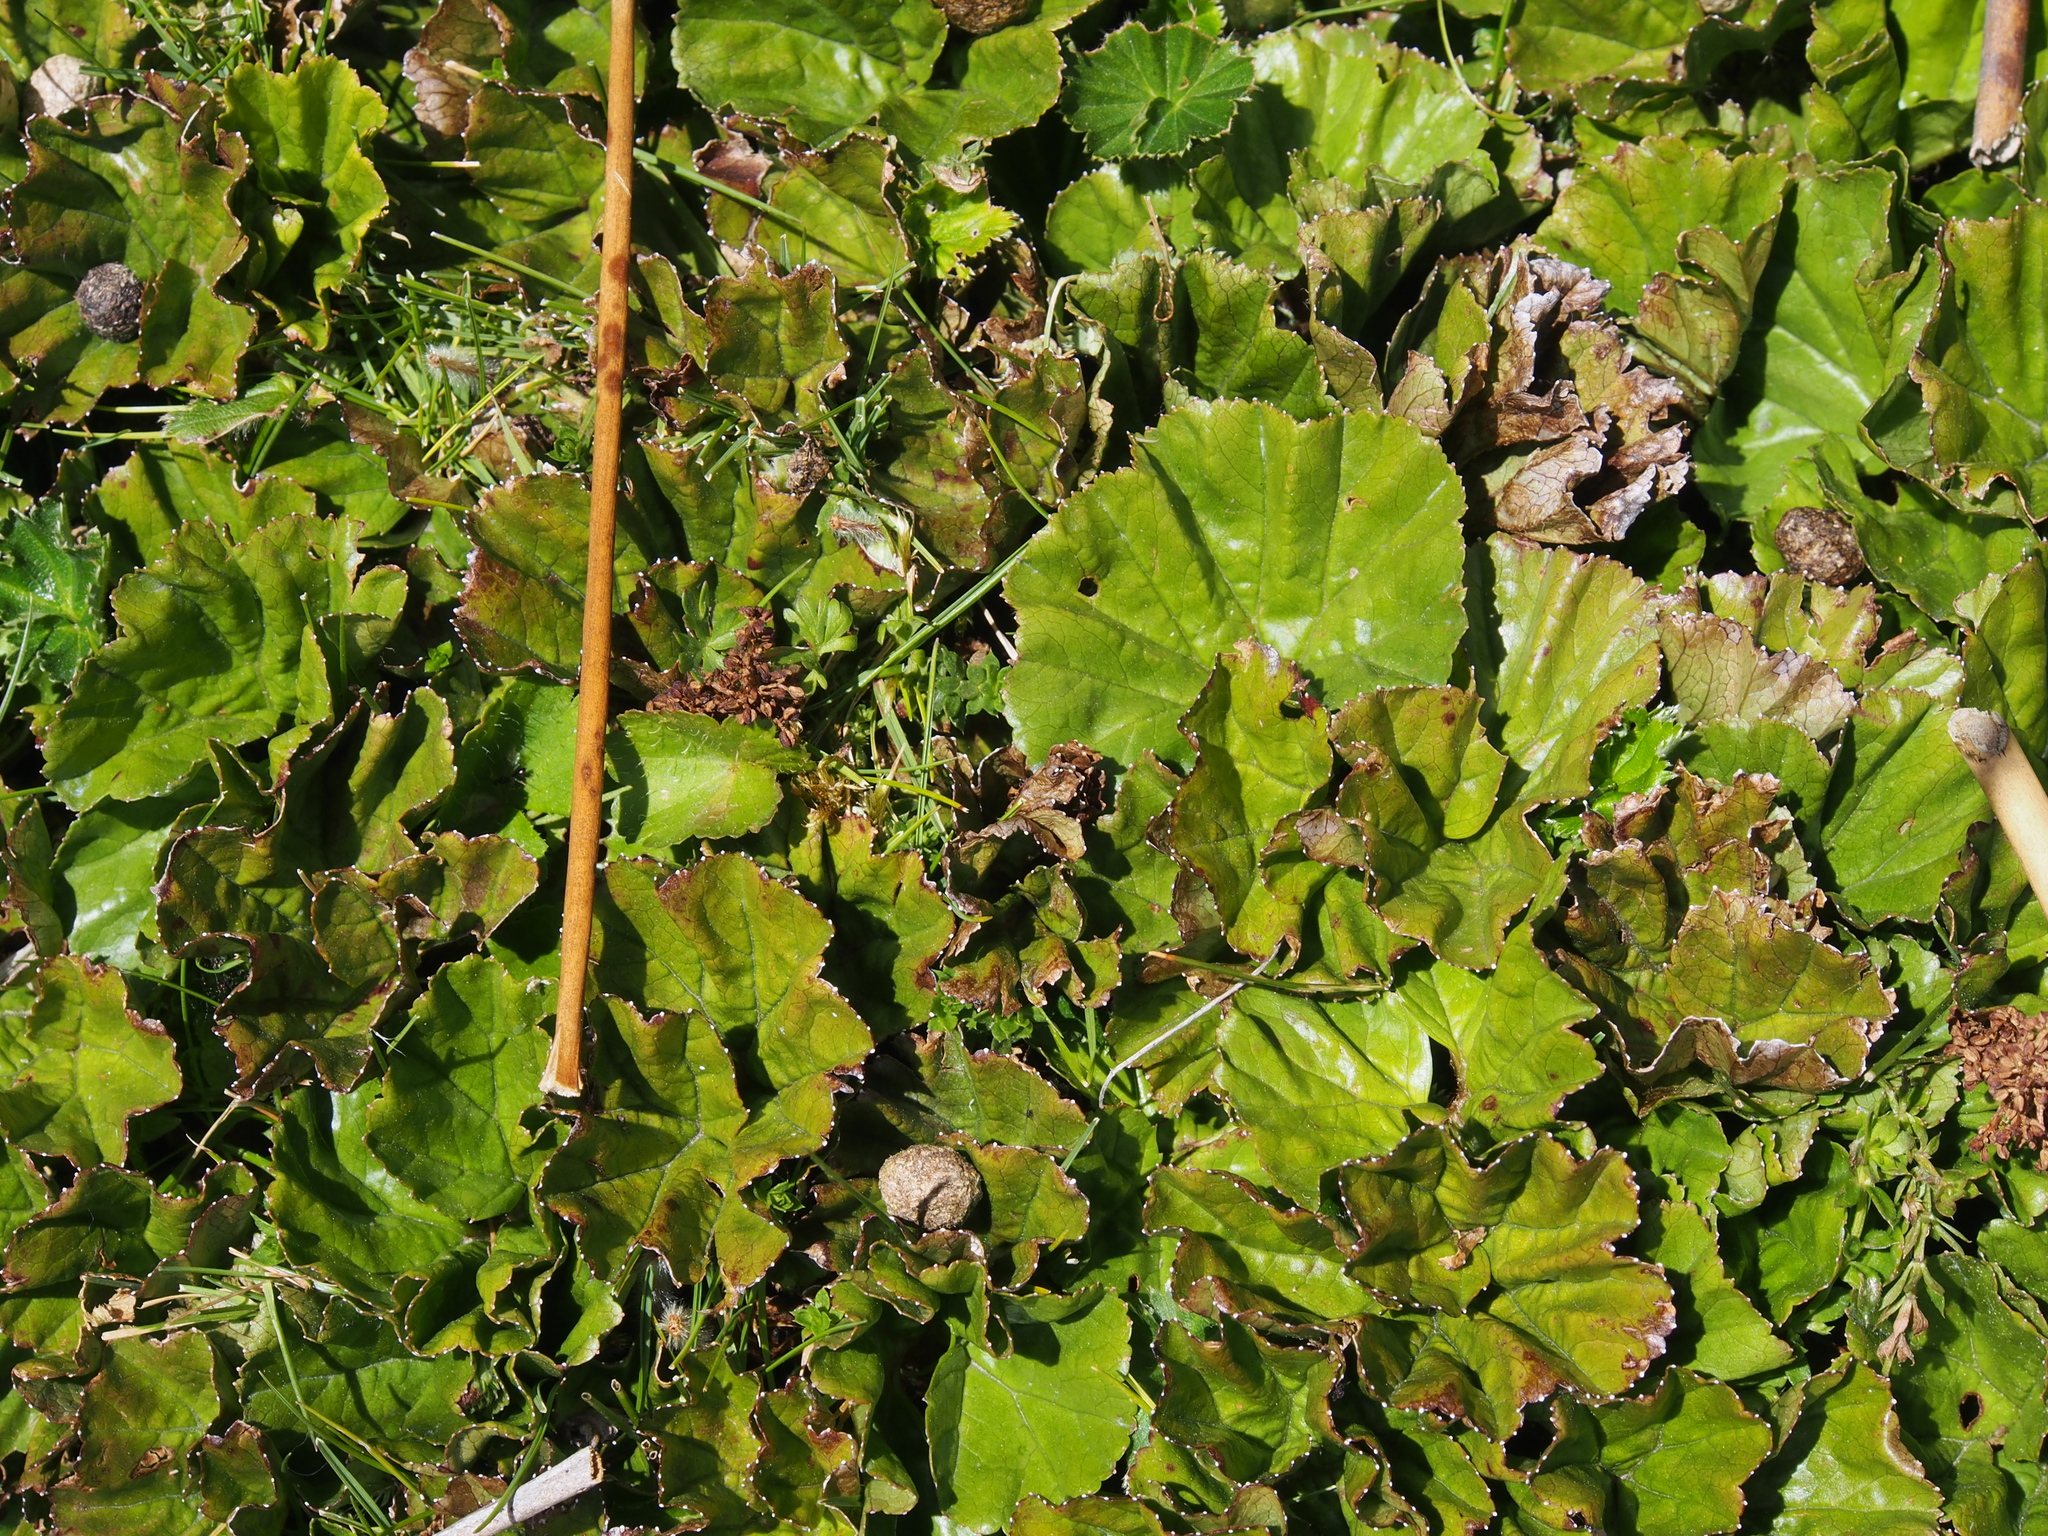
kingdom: Plantae
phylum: Tracheophyta
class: Magnoliopsida
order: Gunnerales
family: Gunneraceae
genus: Gunnera
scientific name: Gunnera magellanica
